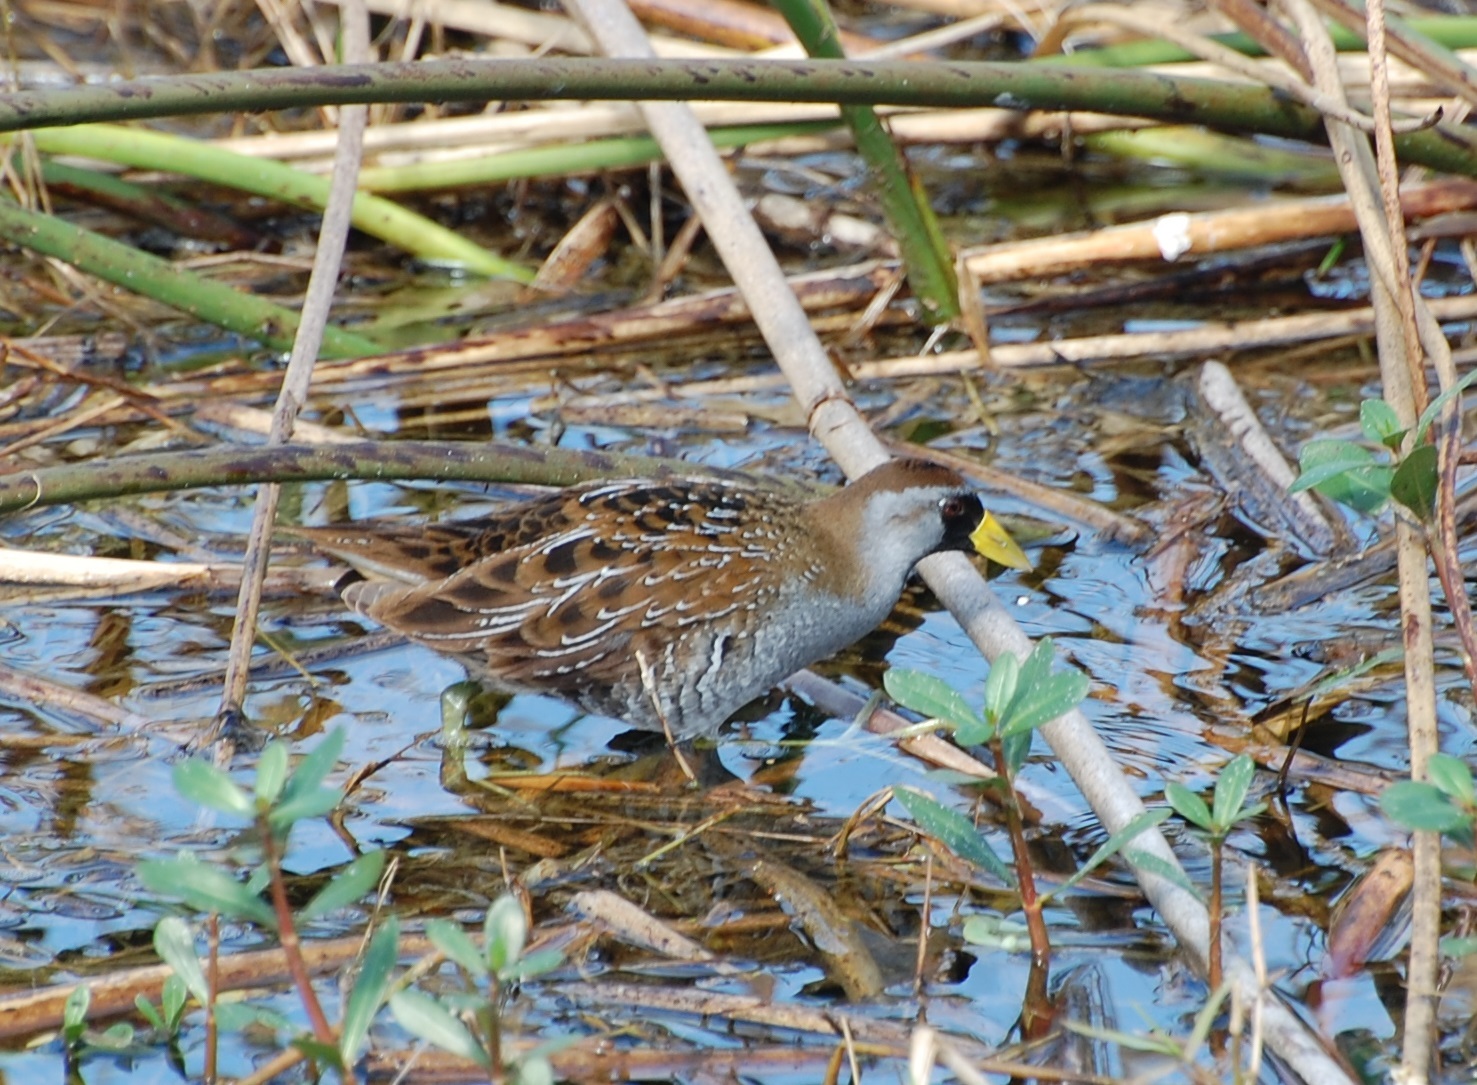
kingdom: Animalia
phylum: Chordata
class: Aves
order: Gruiformes
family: Rallidae
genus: Porzana
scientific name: Porzana carolina
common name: Sora
